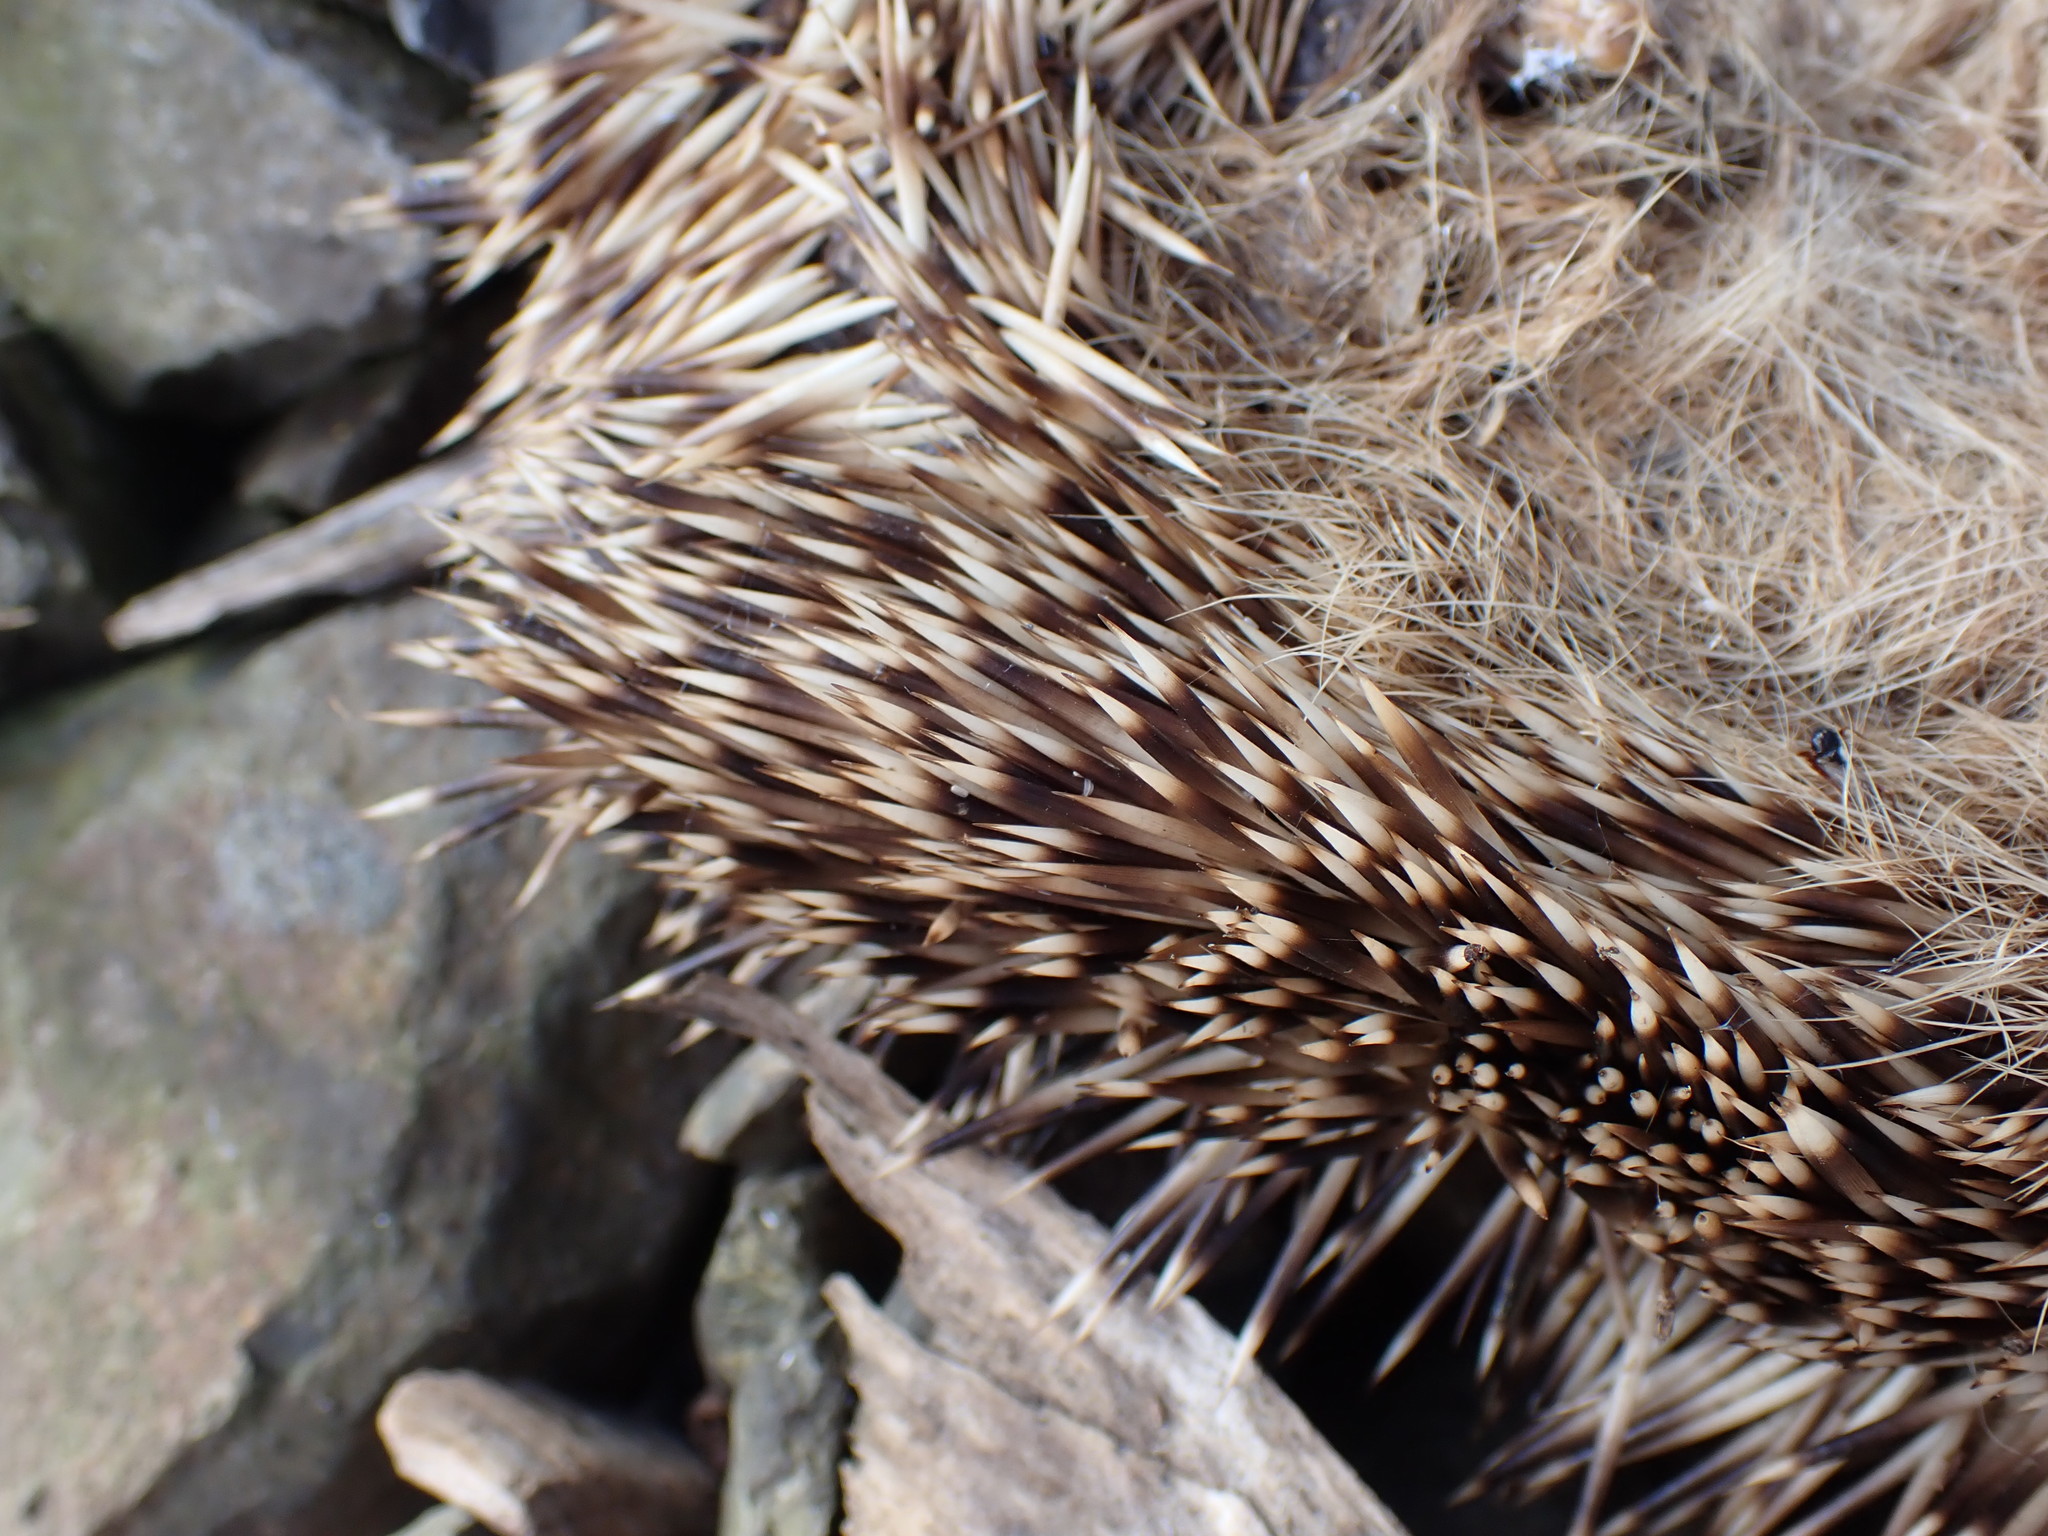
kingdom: Animalia
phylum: Chordata
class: Mammalia
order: Erinaceomorpha
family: Erinaceidae
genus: Erinaceus
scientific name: Erinaceus europaeus
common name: West european hedgehog
